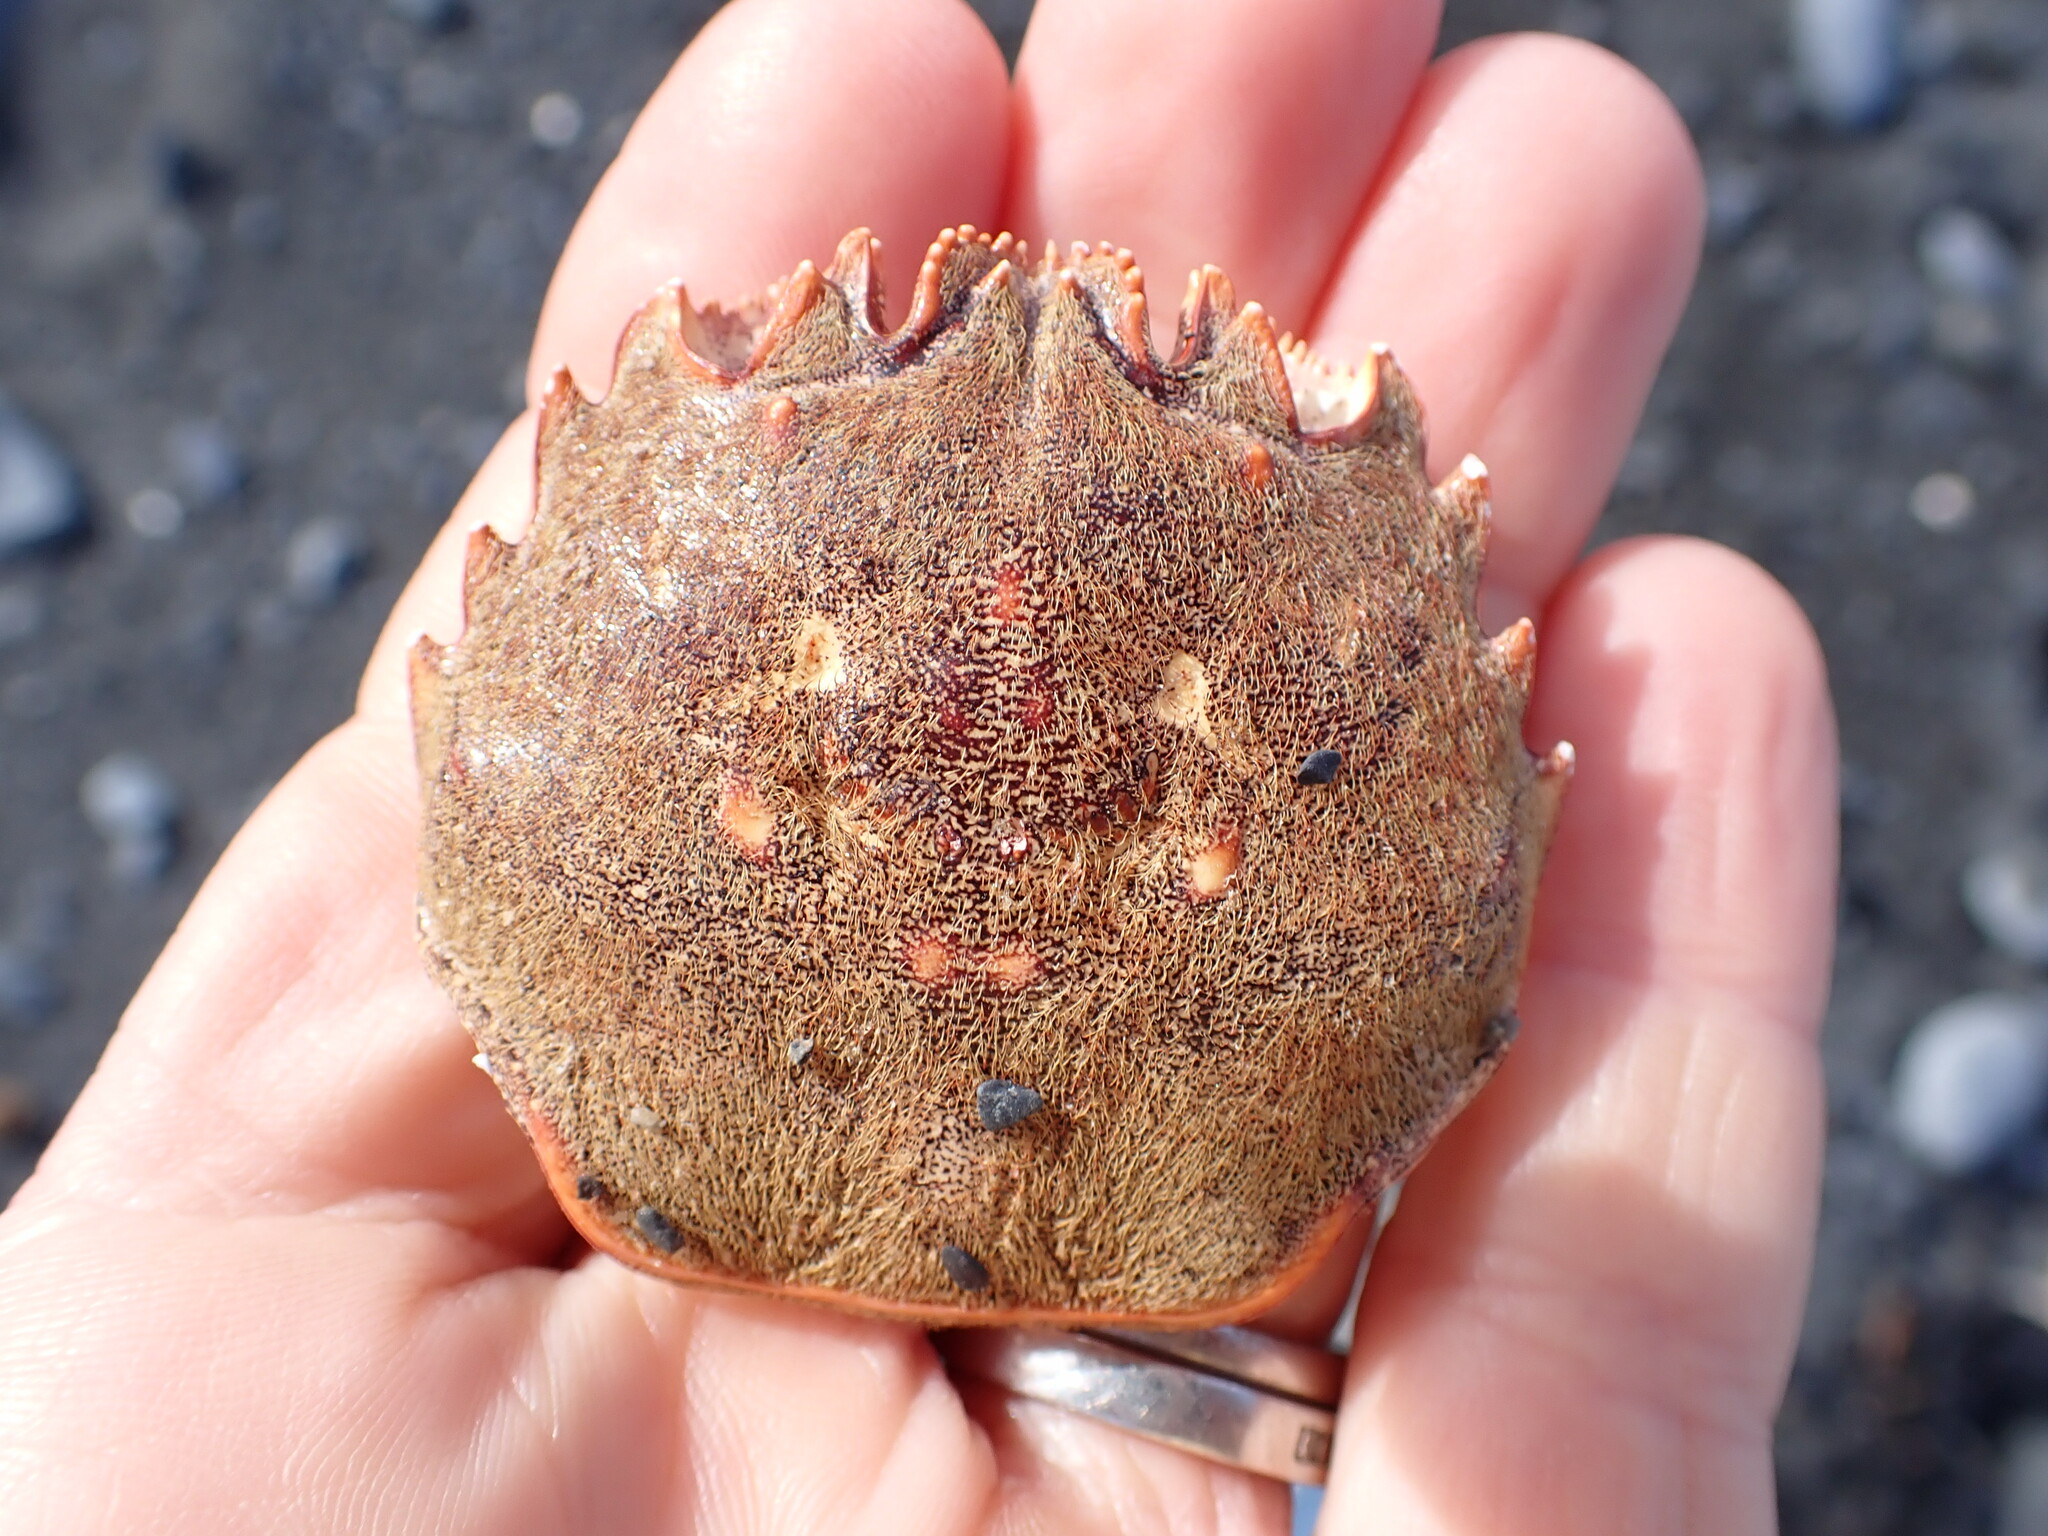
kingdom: Animalia
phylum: Arthropoda
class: Malacostraca
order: Decapoda
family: Plagusiidae
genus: Guinusia
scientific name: Guinusia chabrus
